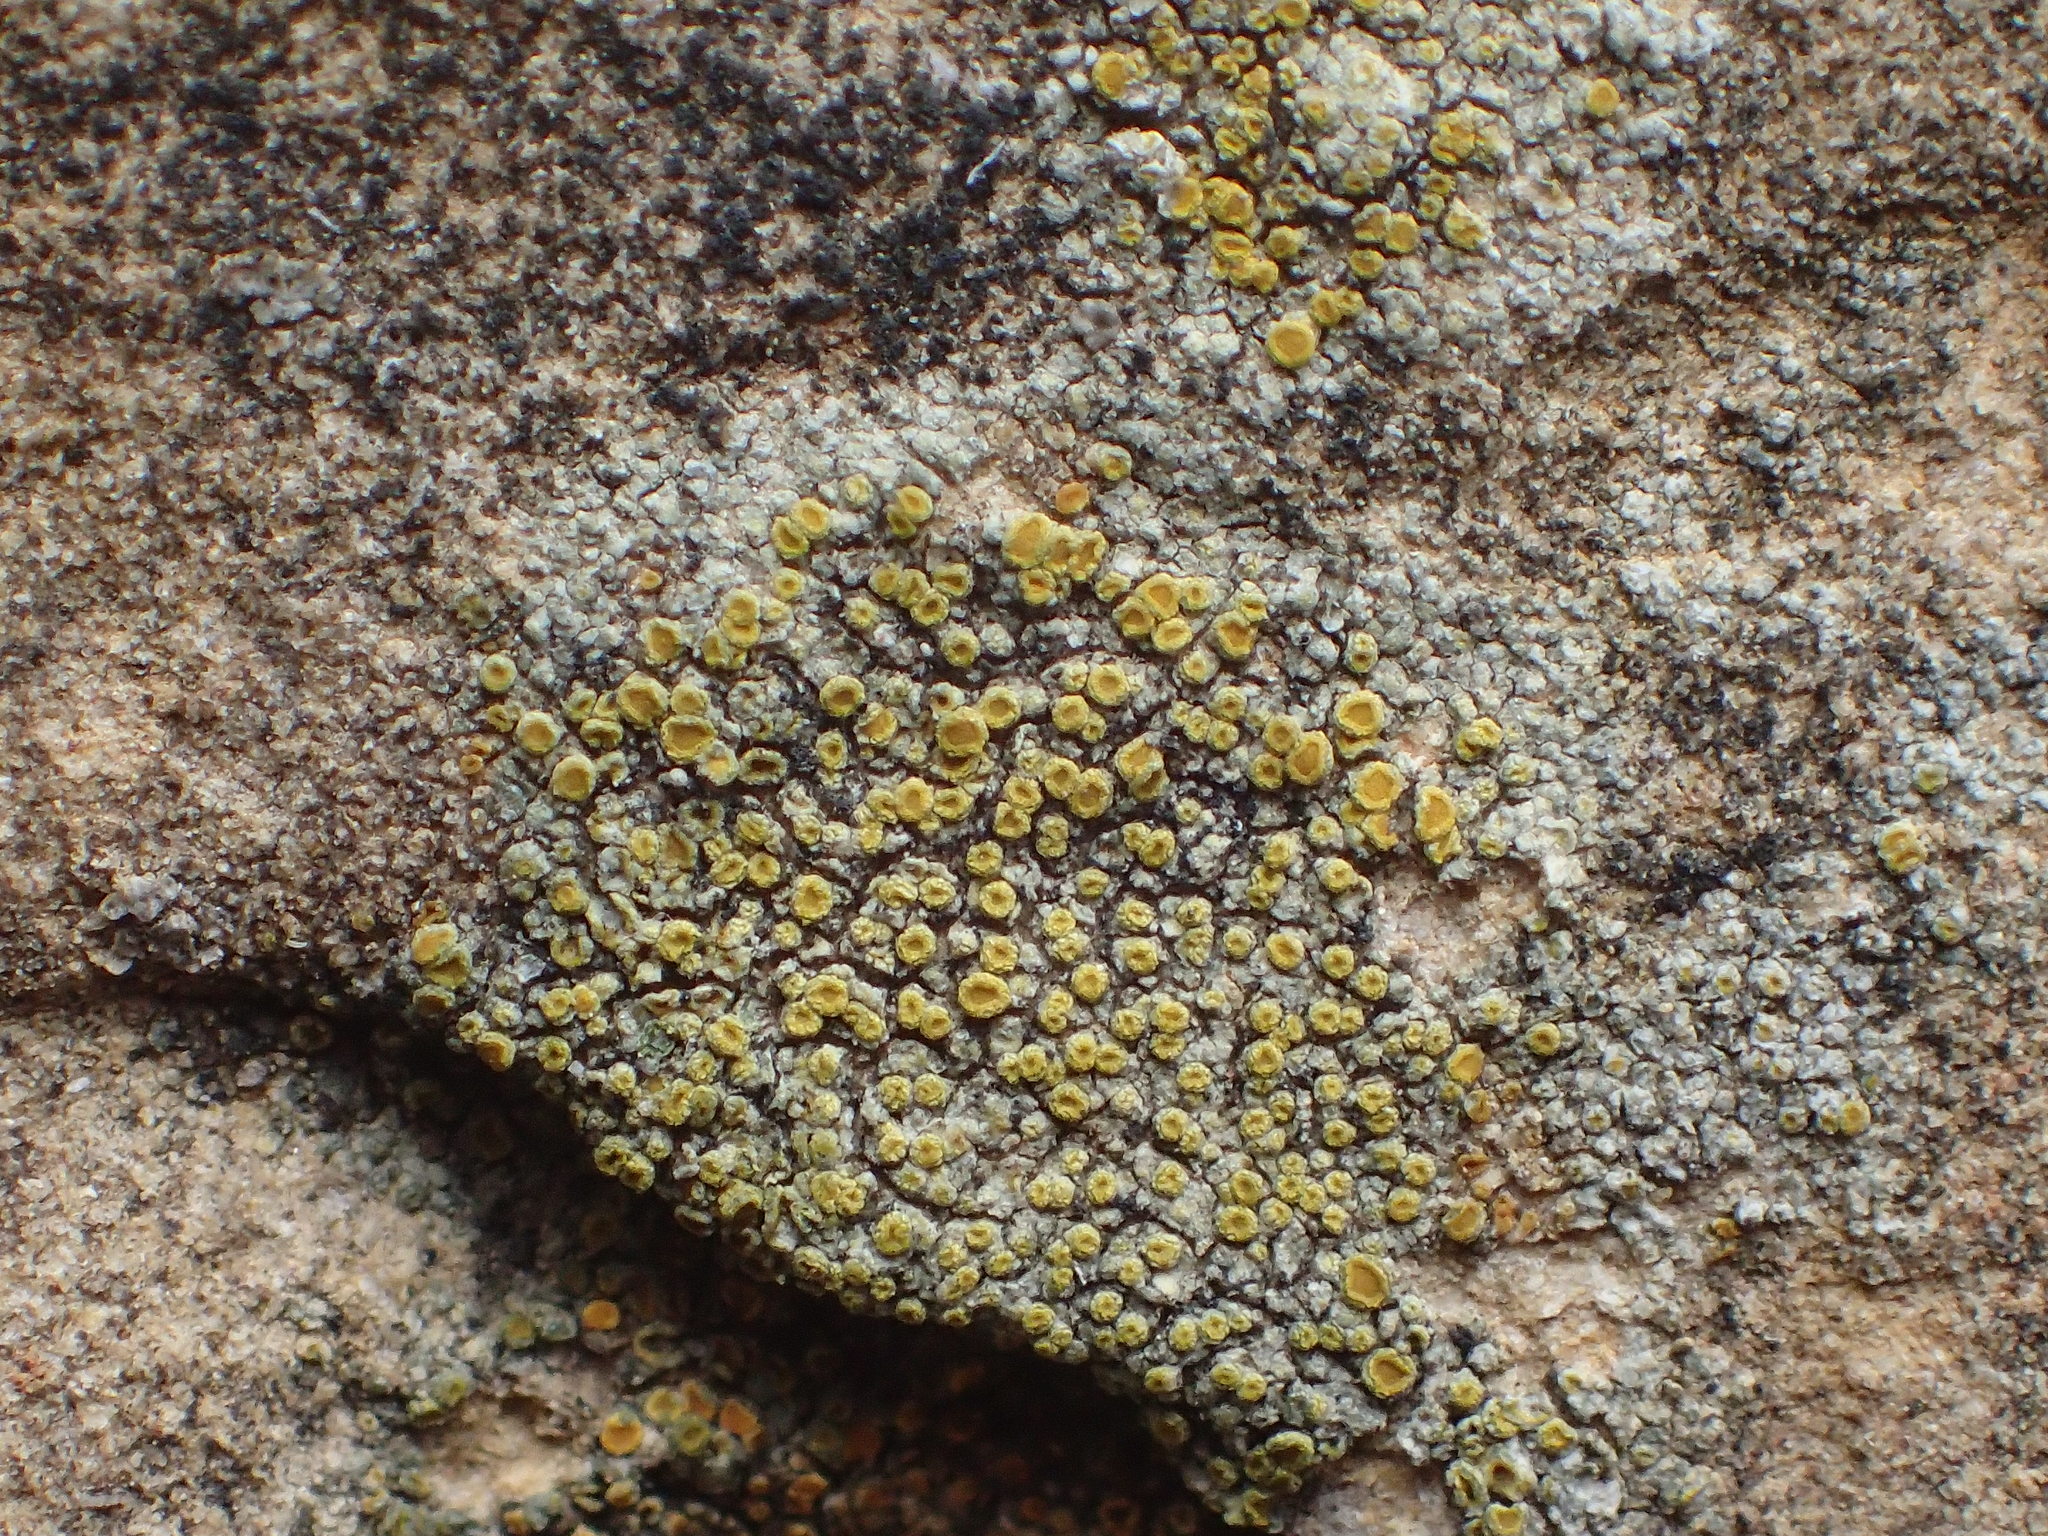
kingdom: Fungi
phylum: Ascomycota
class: Lecanoromycetes
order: Teloschistales
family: Teloschistaceae
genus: Xanthocarpia
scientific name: Xanthocarpia feracissima
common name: Sidewalk firedot
